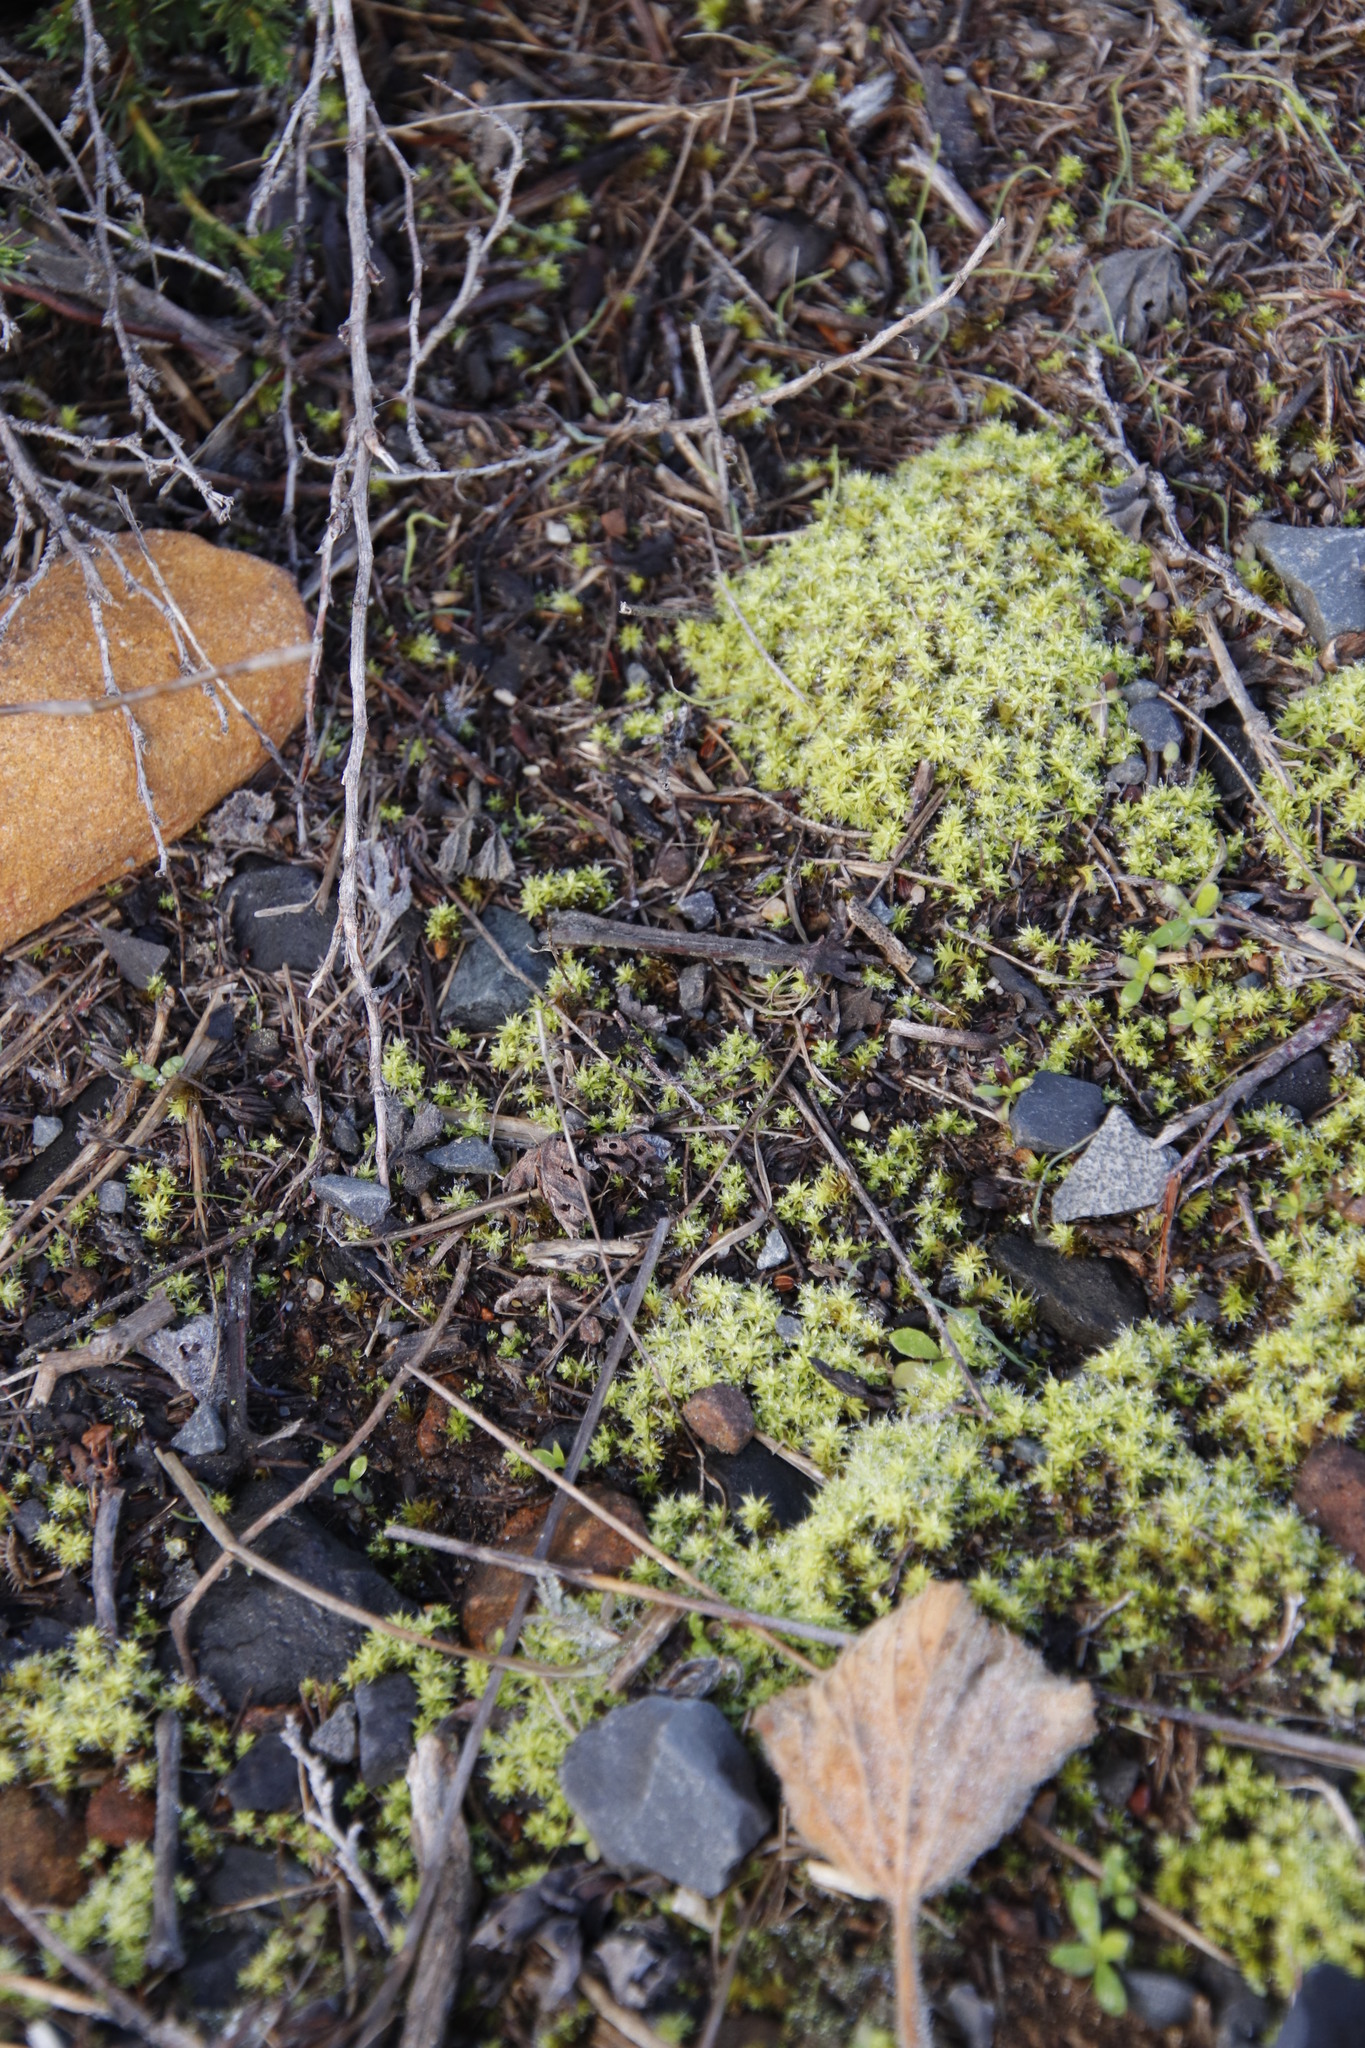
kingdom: Plantae
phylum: Bryophyta
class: Bryopsida
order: Pottiales
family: Pottiaceae
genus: Pseudocrossidium
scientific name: Pseudocrossidium crinitum
